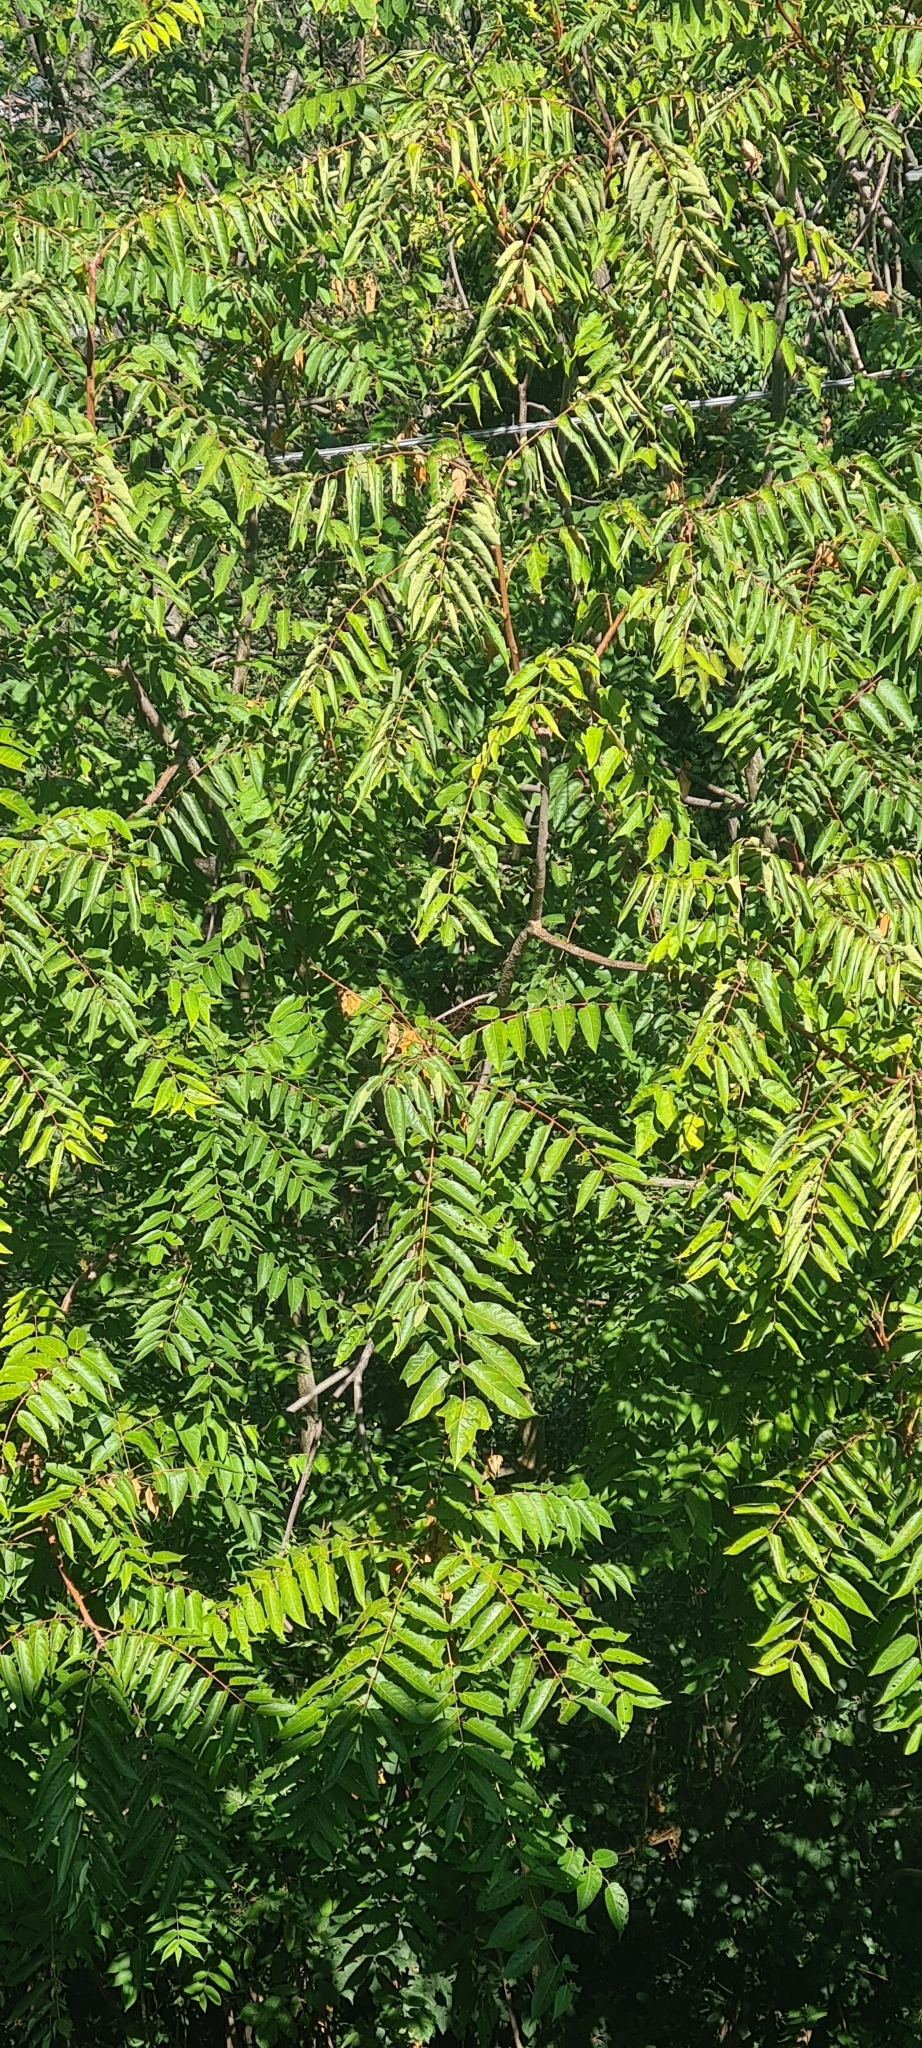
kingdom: Plantae
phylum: Tracheophyta
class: Magnoliopsida
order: Sapindales
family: Simaroubaceae
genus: Ailanthus
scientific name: Ailanthus altissima
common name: Tree-of-heaven
